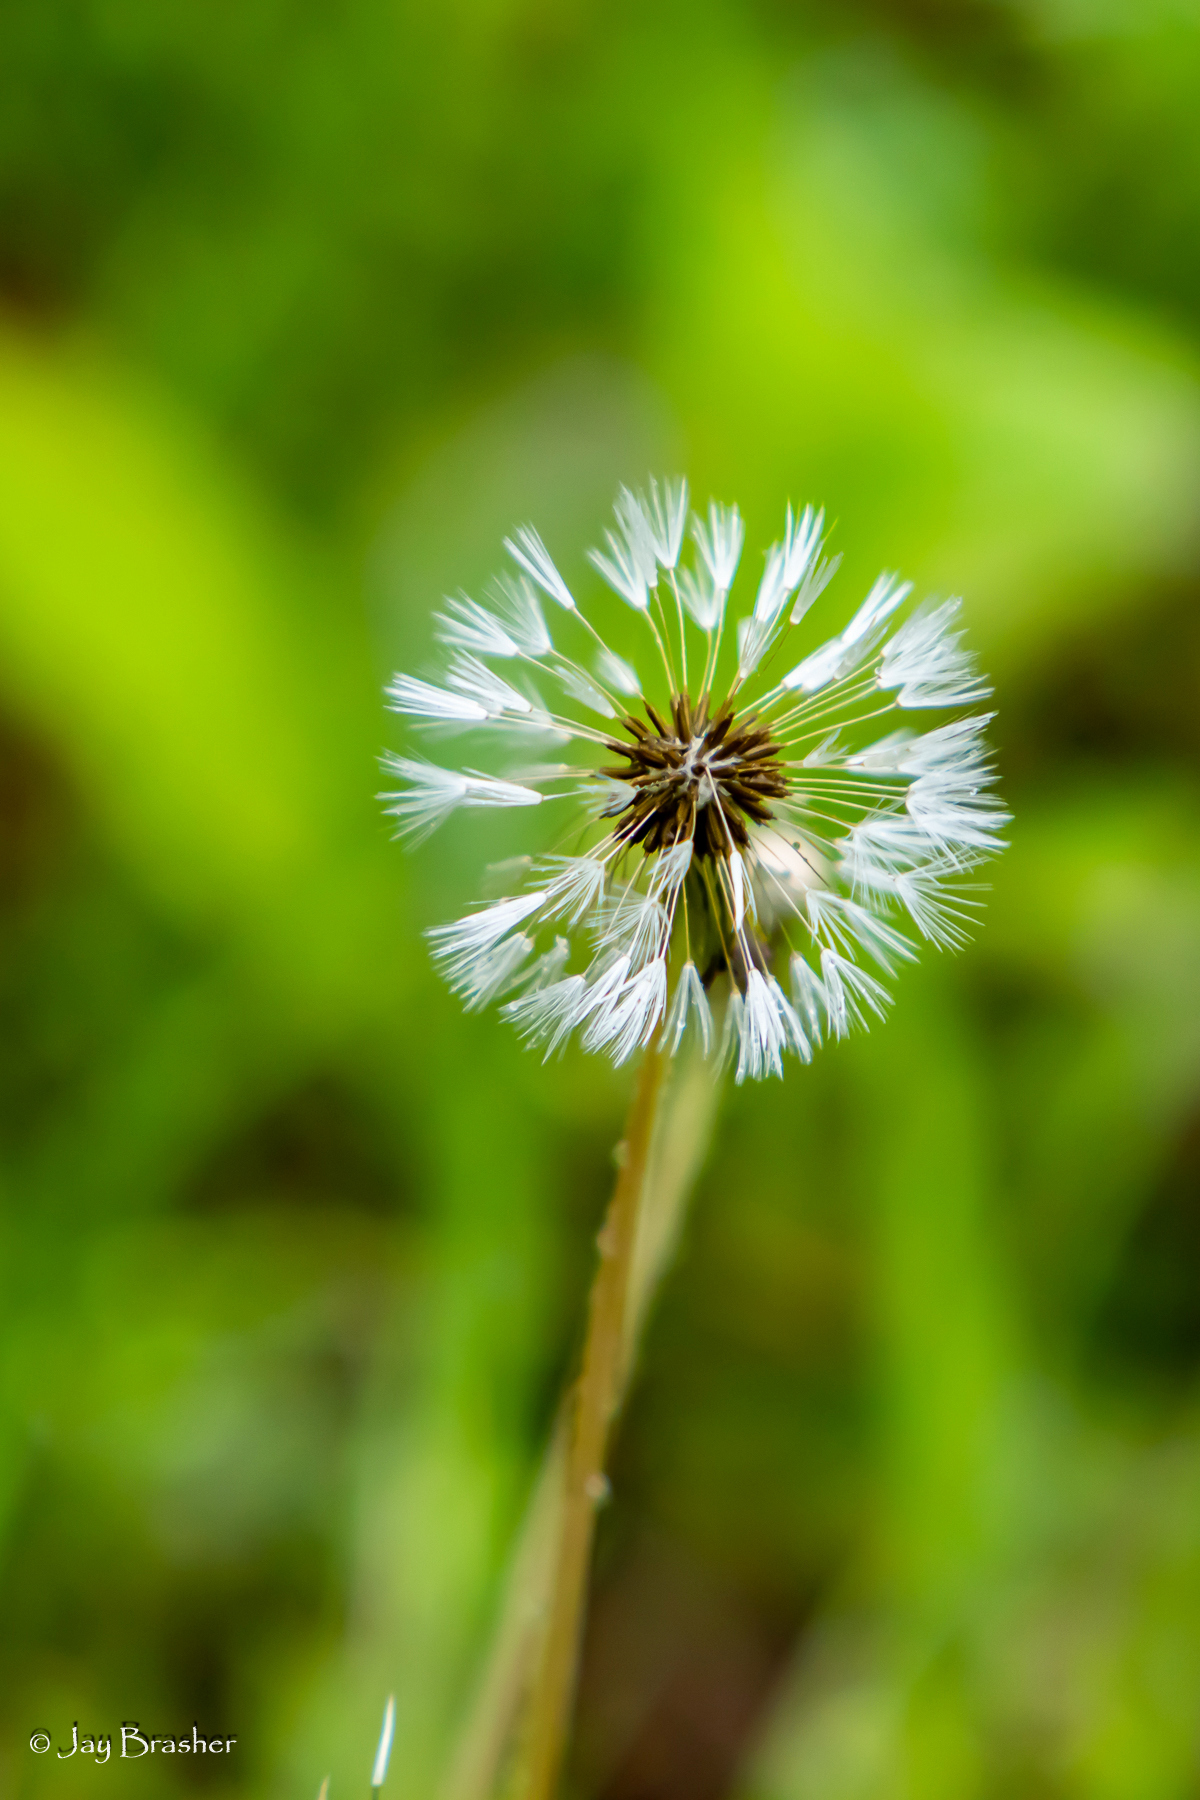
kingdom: Plantae
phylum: Tracheophyta
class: Magnoliopsida
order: Asterales
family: Asteraceae
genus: Taraxacum
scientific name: Taraxacum erythrospermum
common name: Rock dandelion
